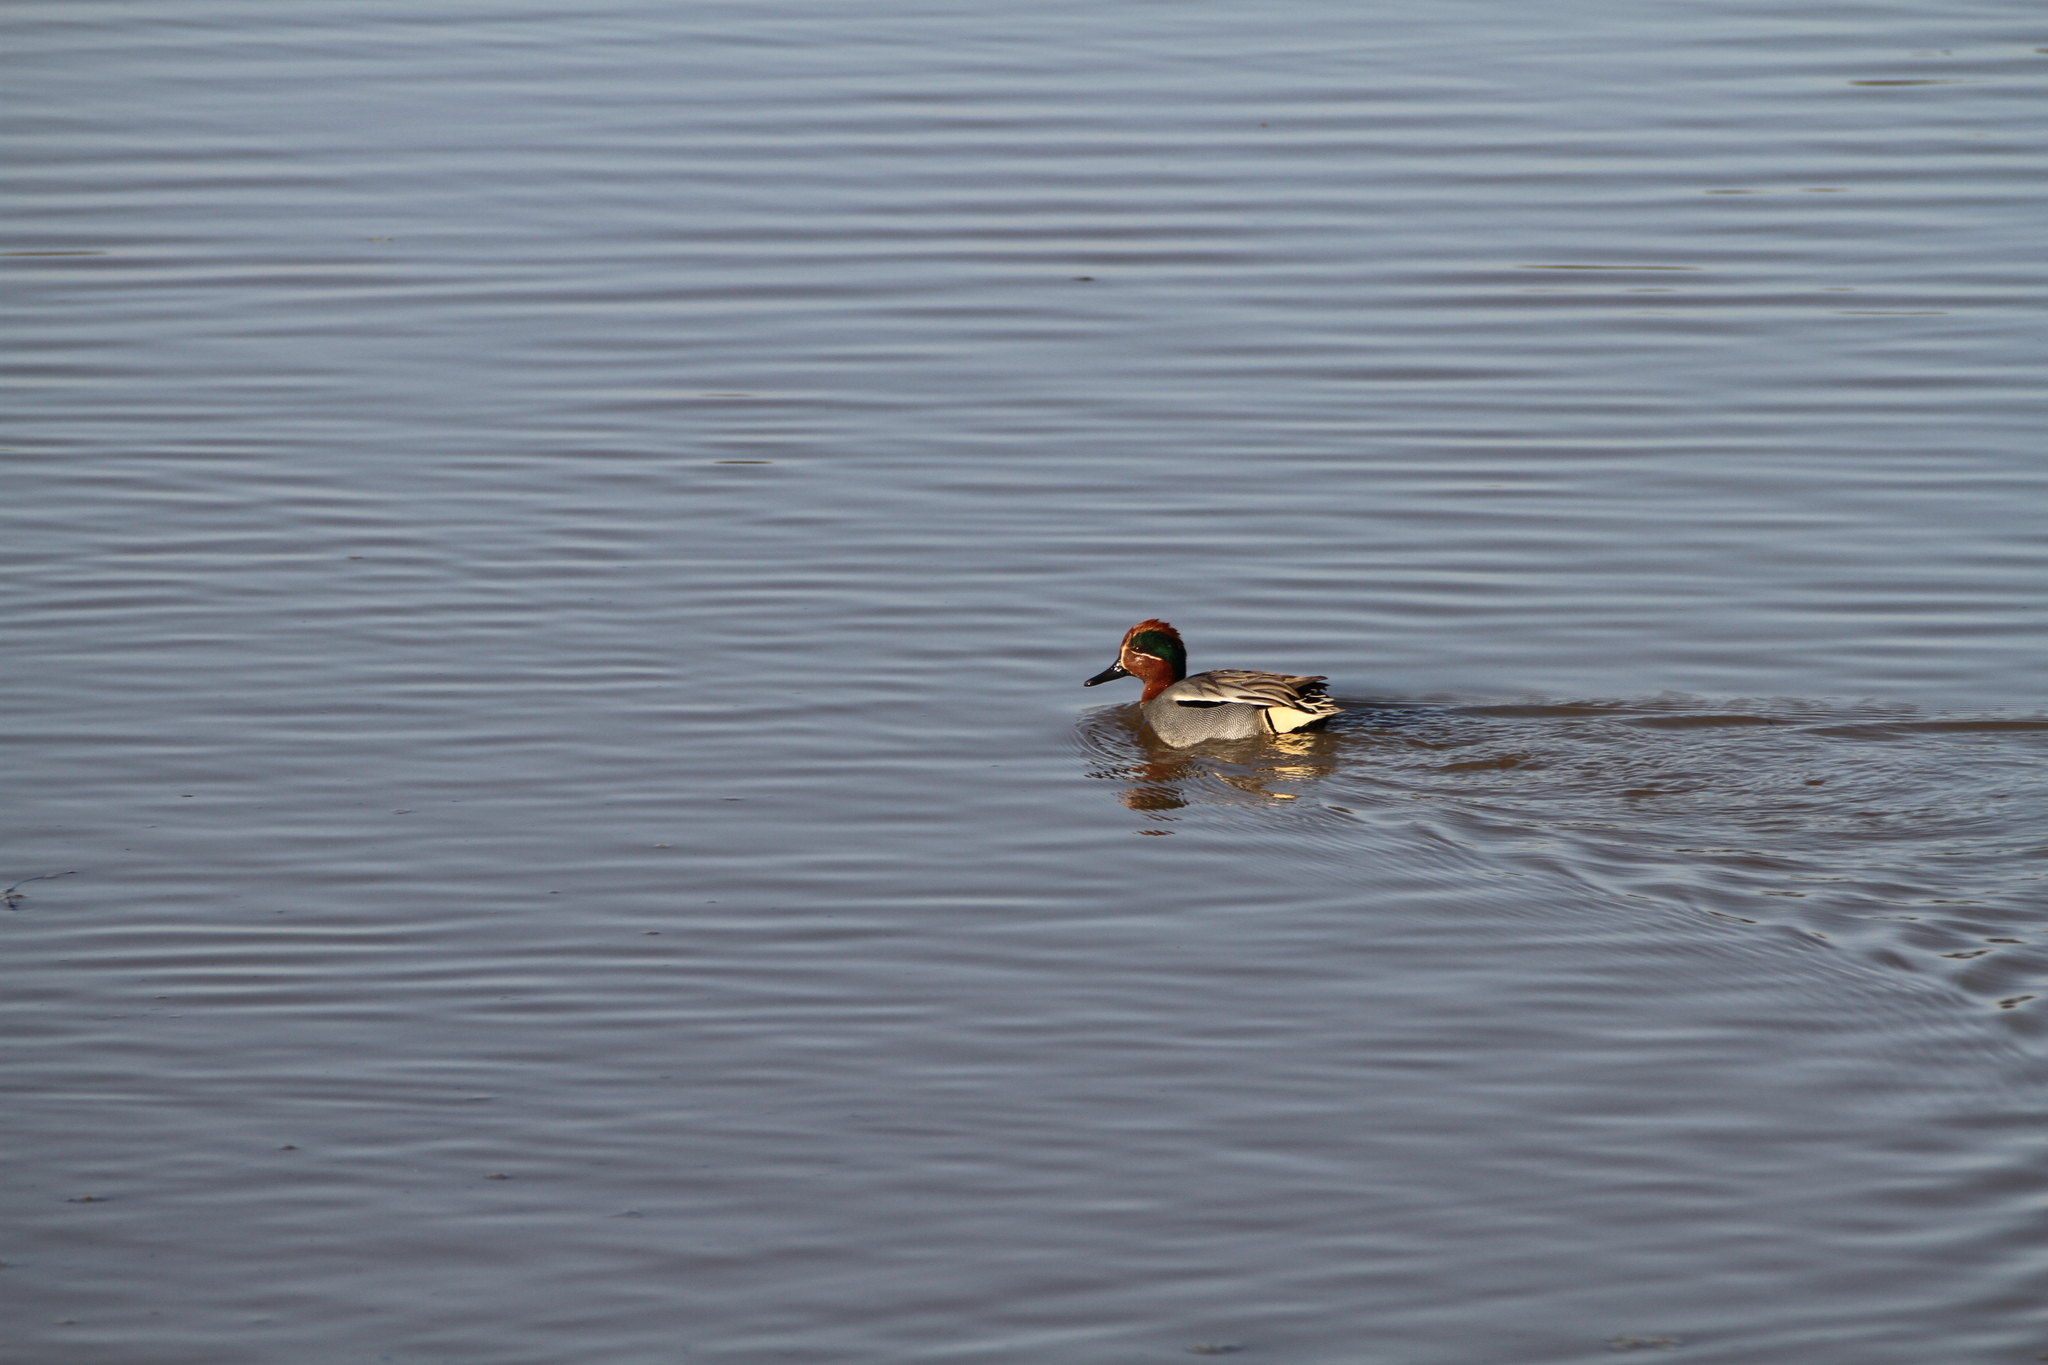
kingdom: Animalia
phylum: Chordata
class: Aves
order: Anseriformes
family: Anatidae
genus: Anas
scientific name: Anas crecca
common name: Eurasian teal
